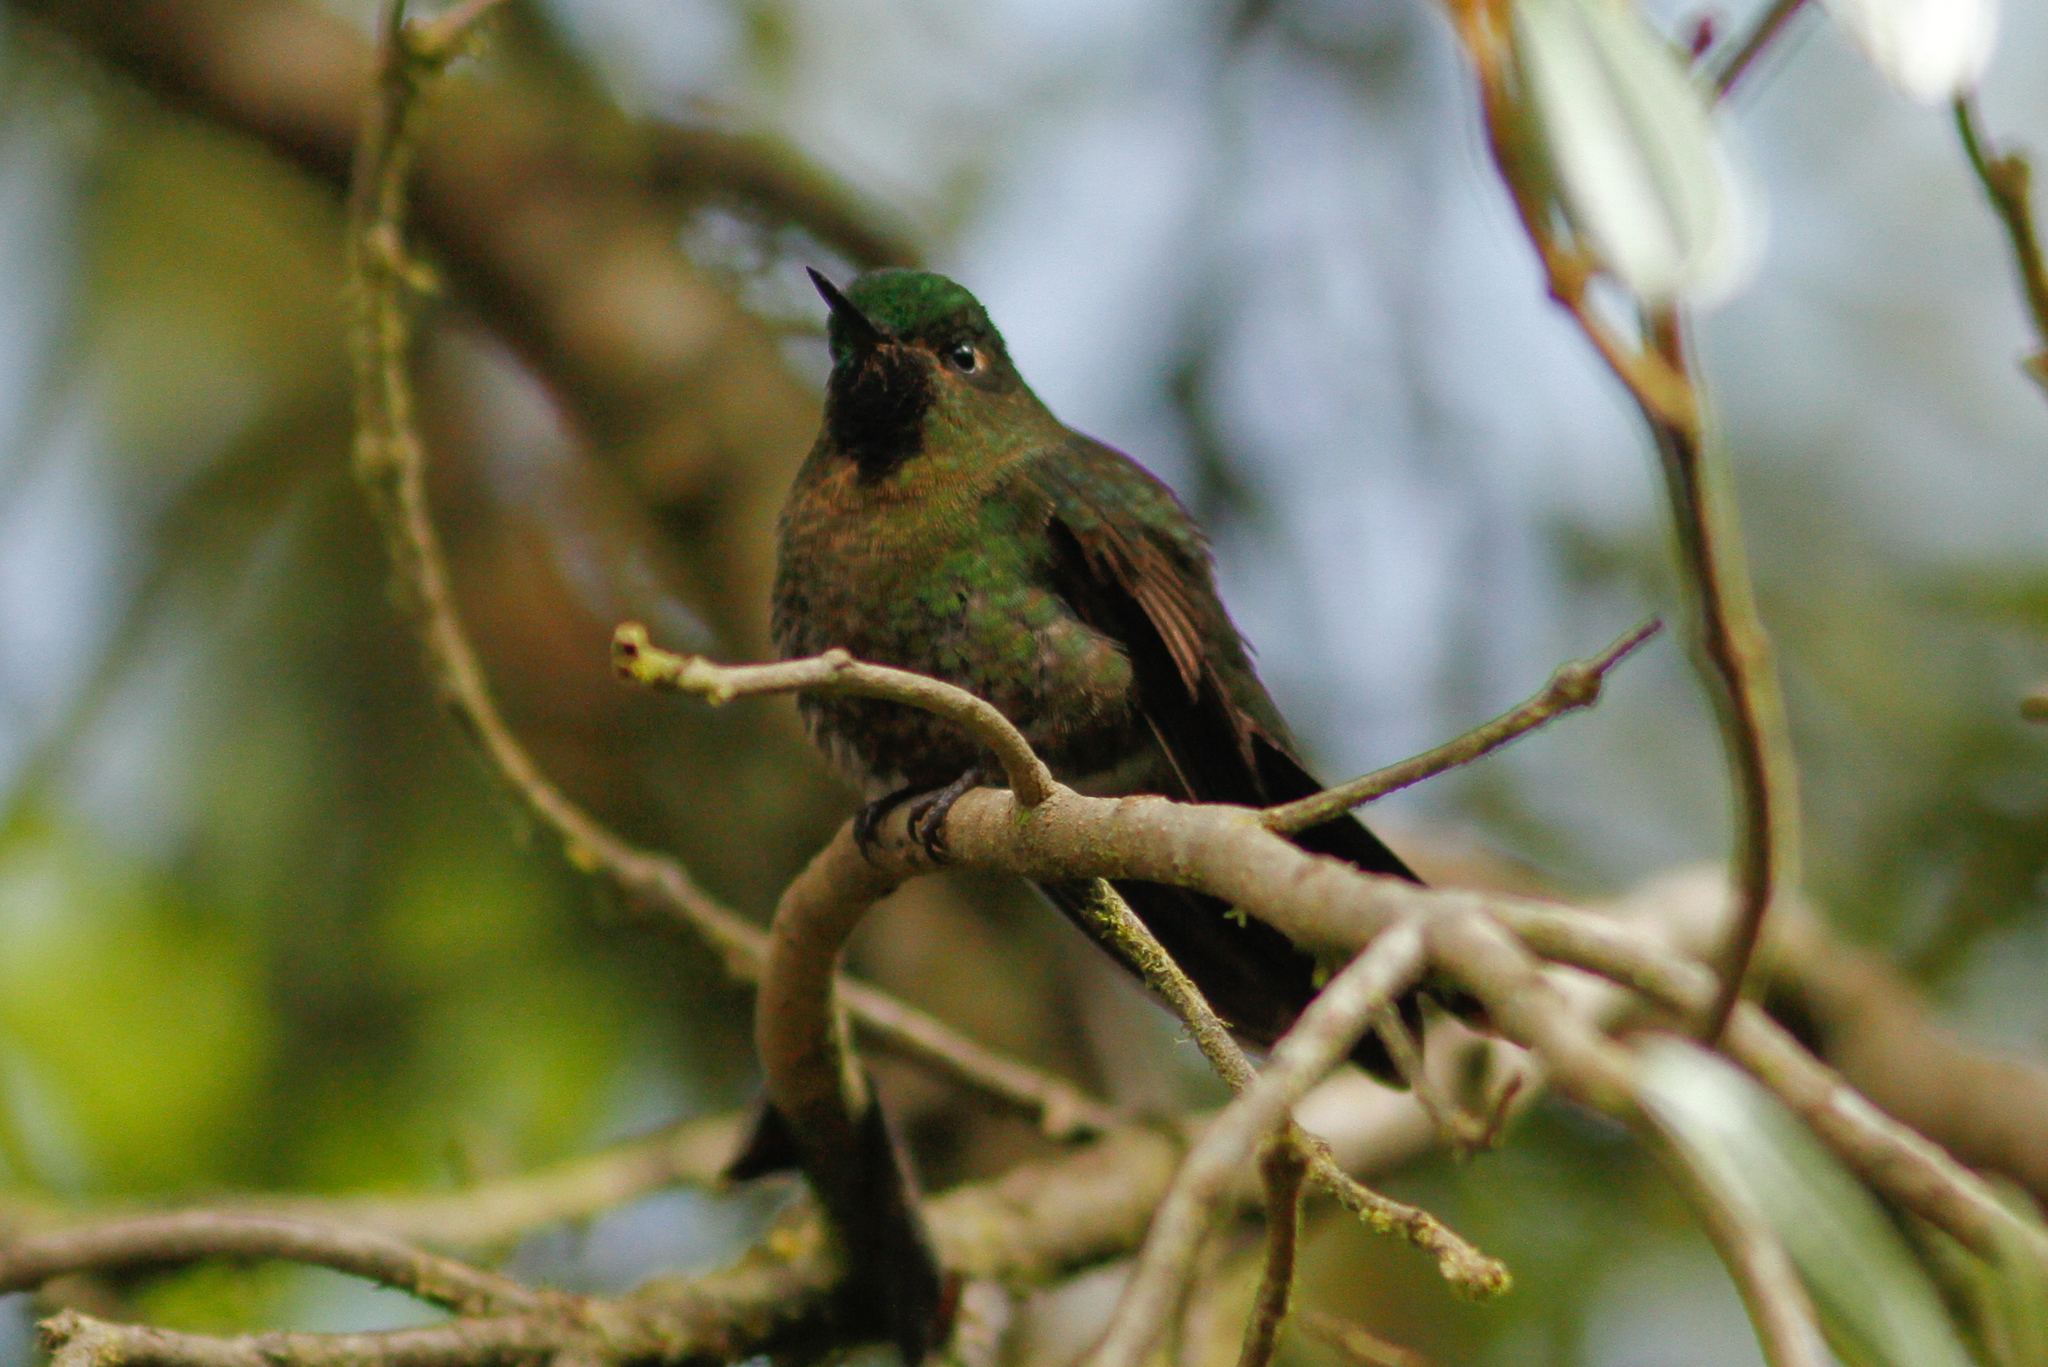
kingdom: Animalia
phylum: Chordata
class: Aves
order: Apodiformes
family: Trochilidae
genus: Metallura
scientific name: Metallura tyrianthina
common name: Tyrian metaltail
